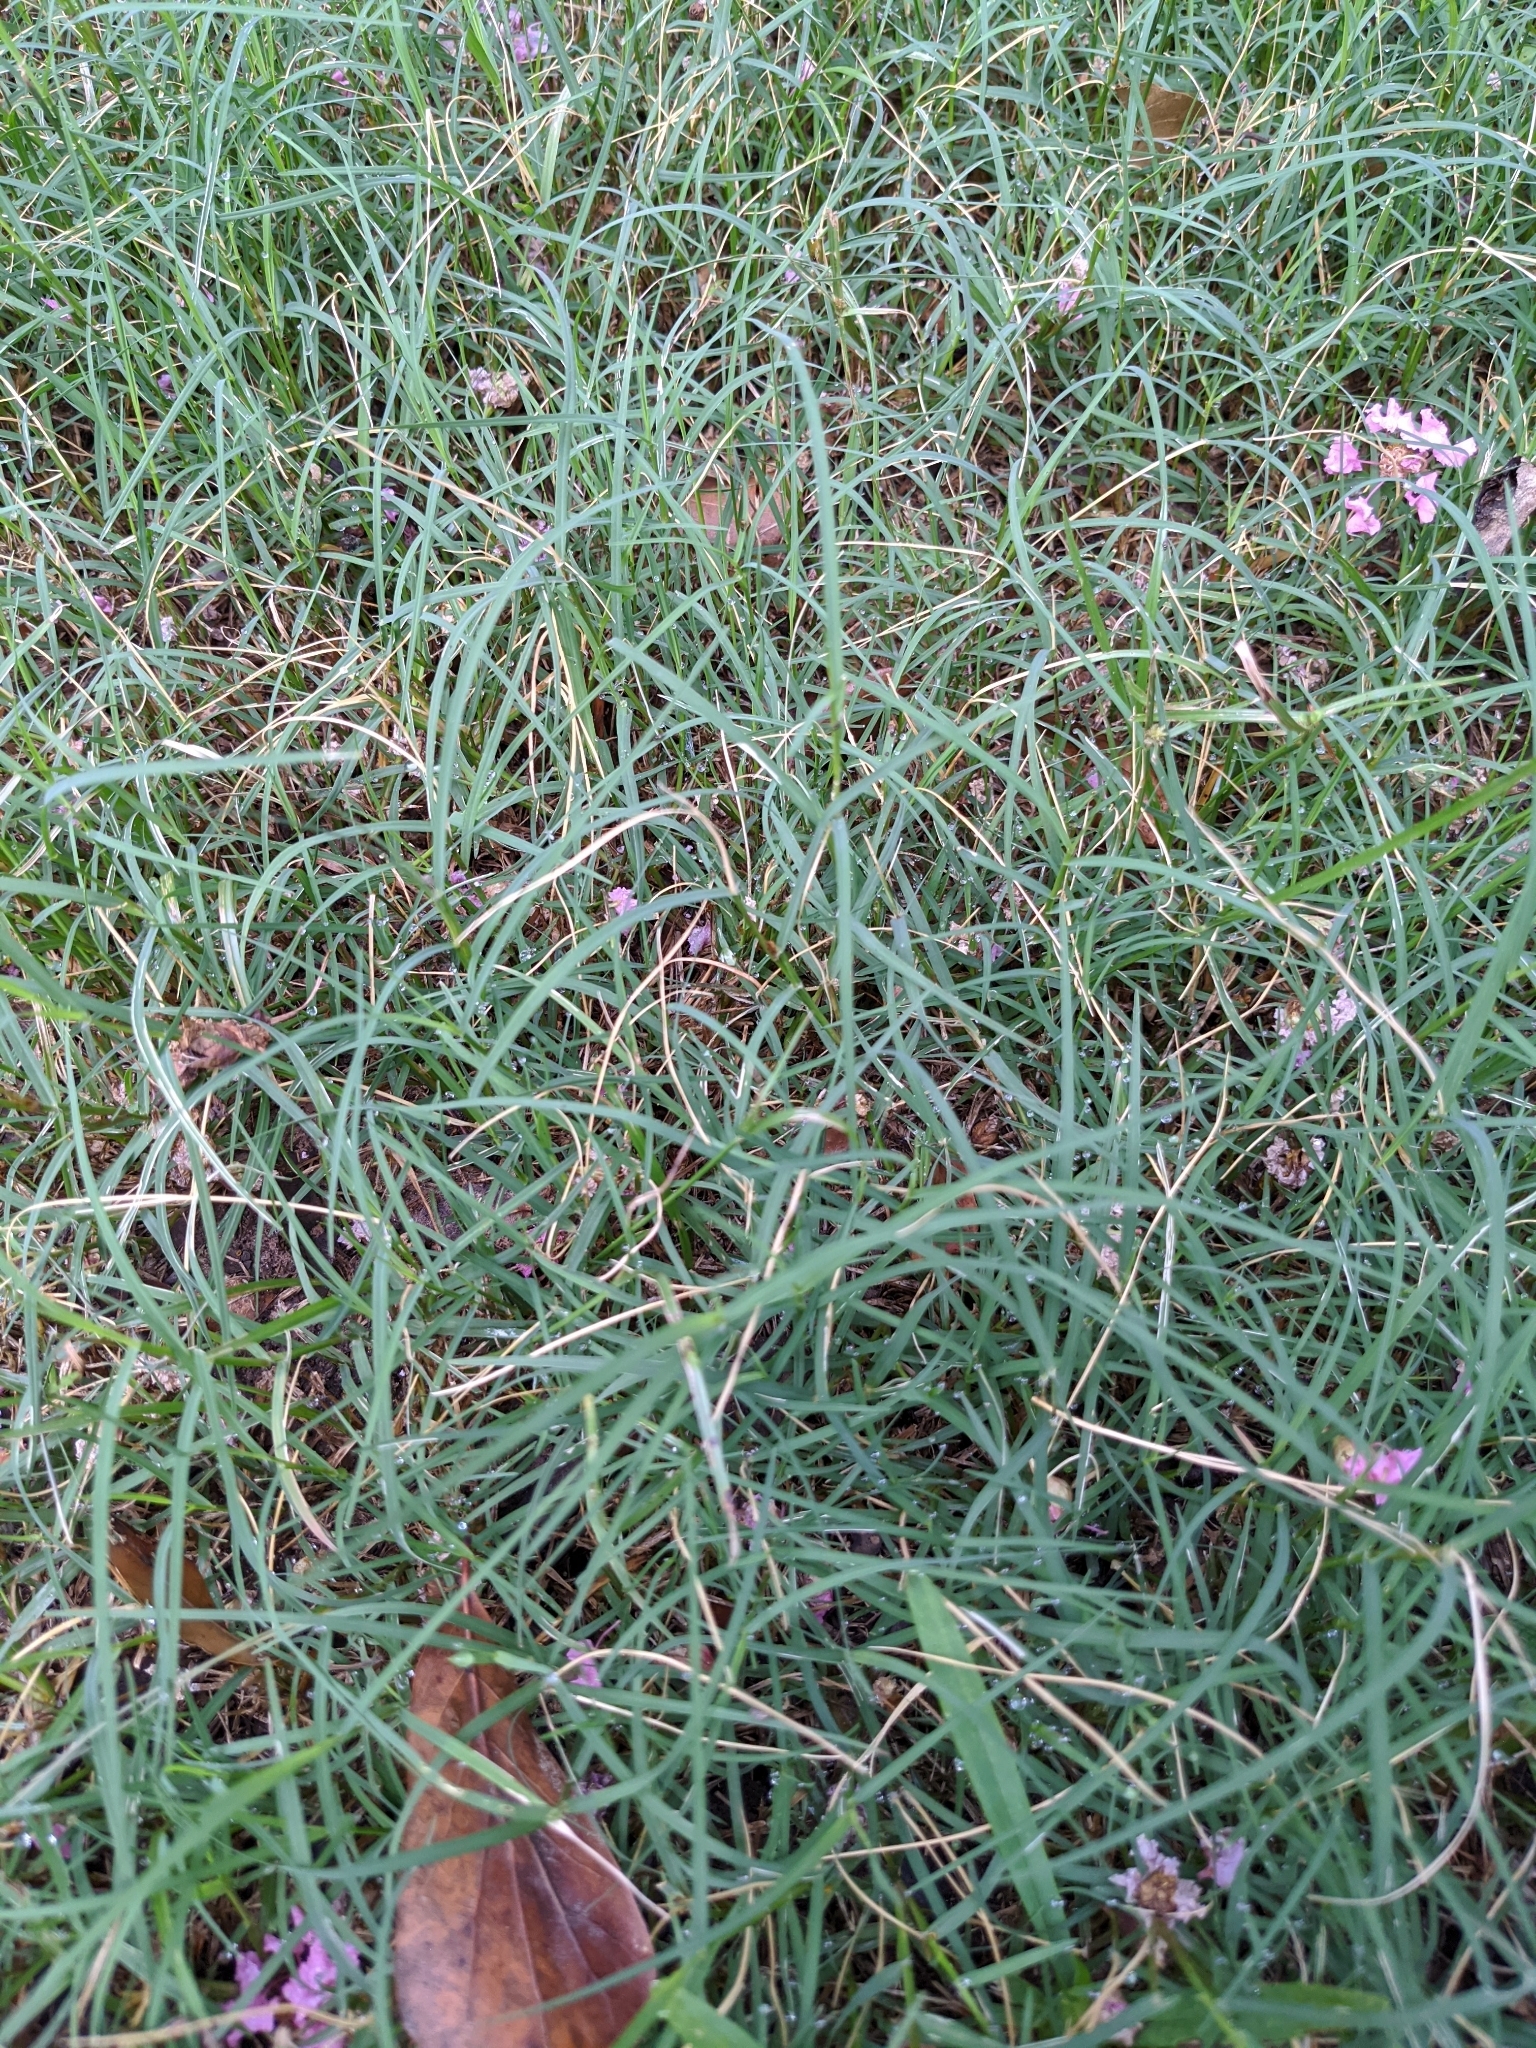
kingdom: Plantae
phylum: Tracheophyta
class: Liliopsida
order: Poales
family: Poaceae
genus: Cynodon
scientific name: Cynodon dactylon
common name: Bermuda grass
